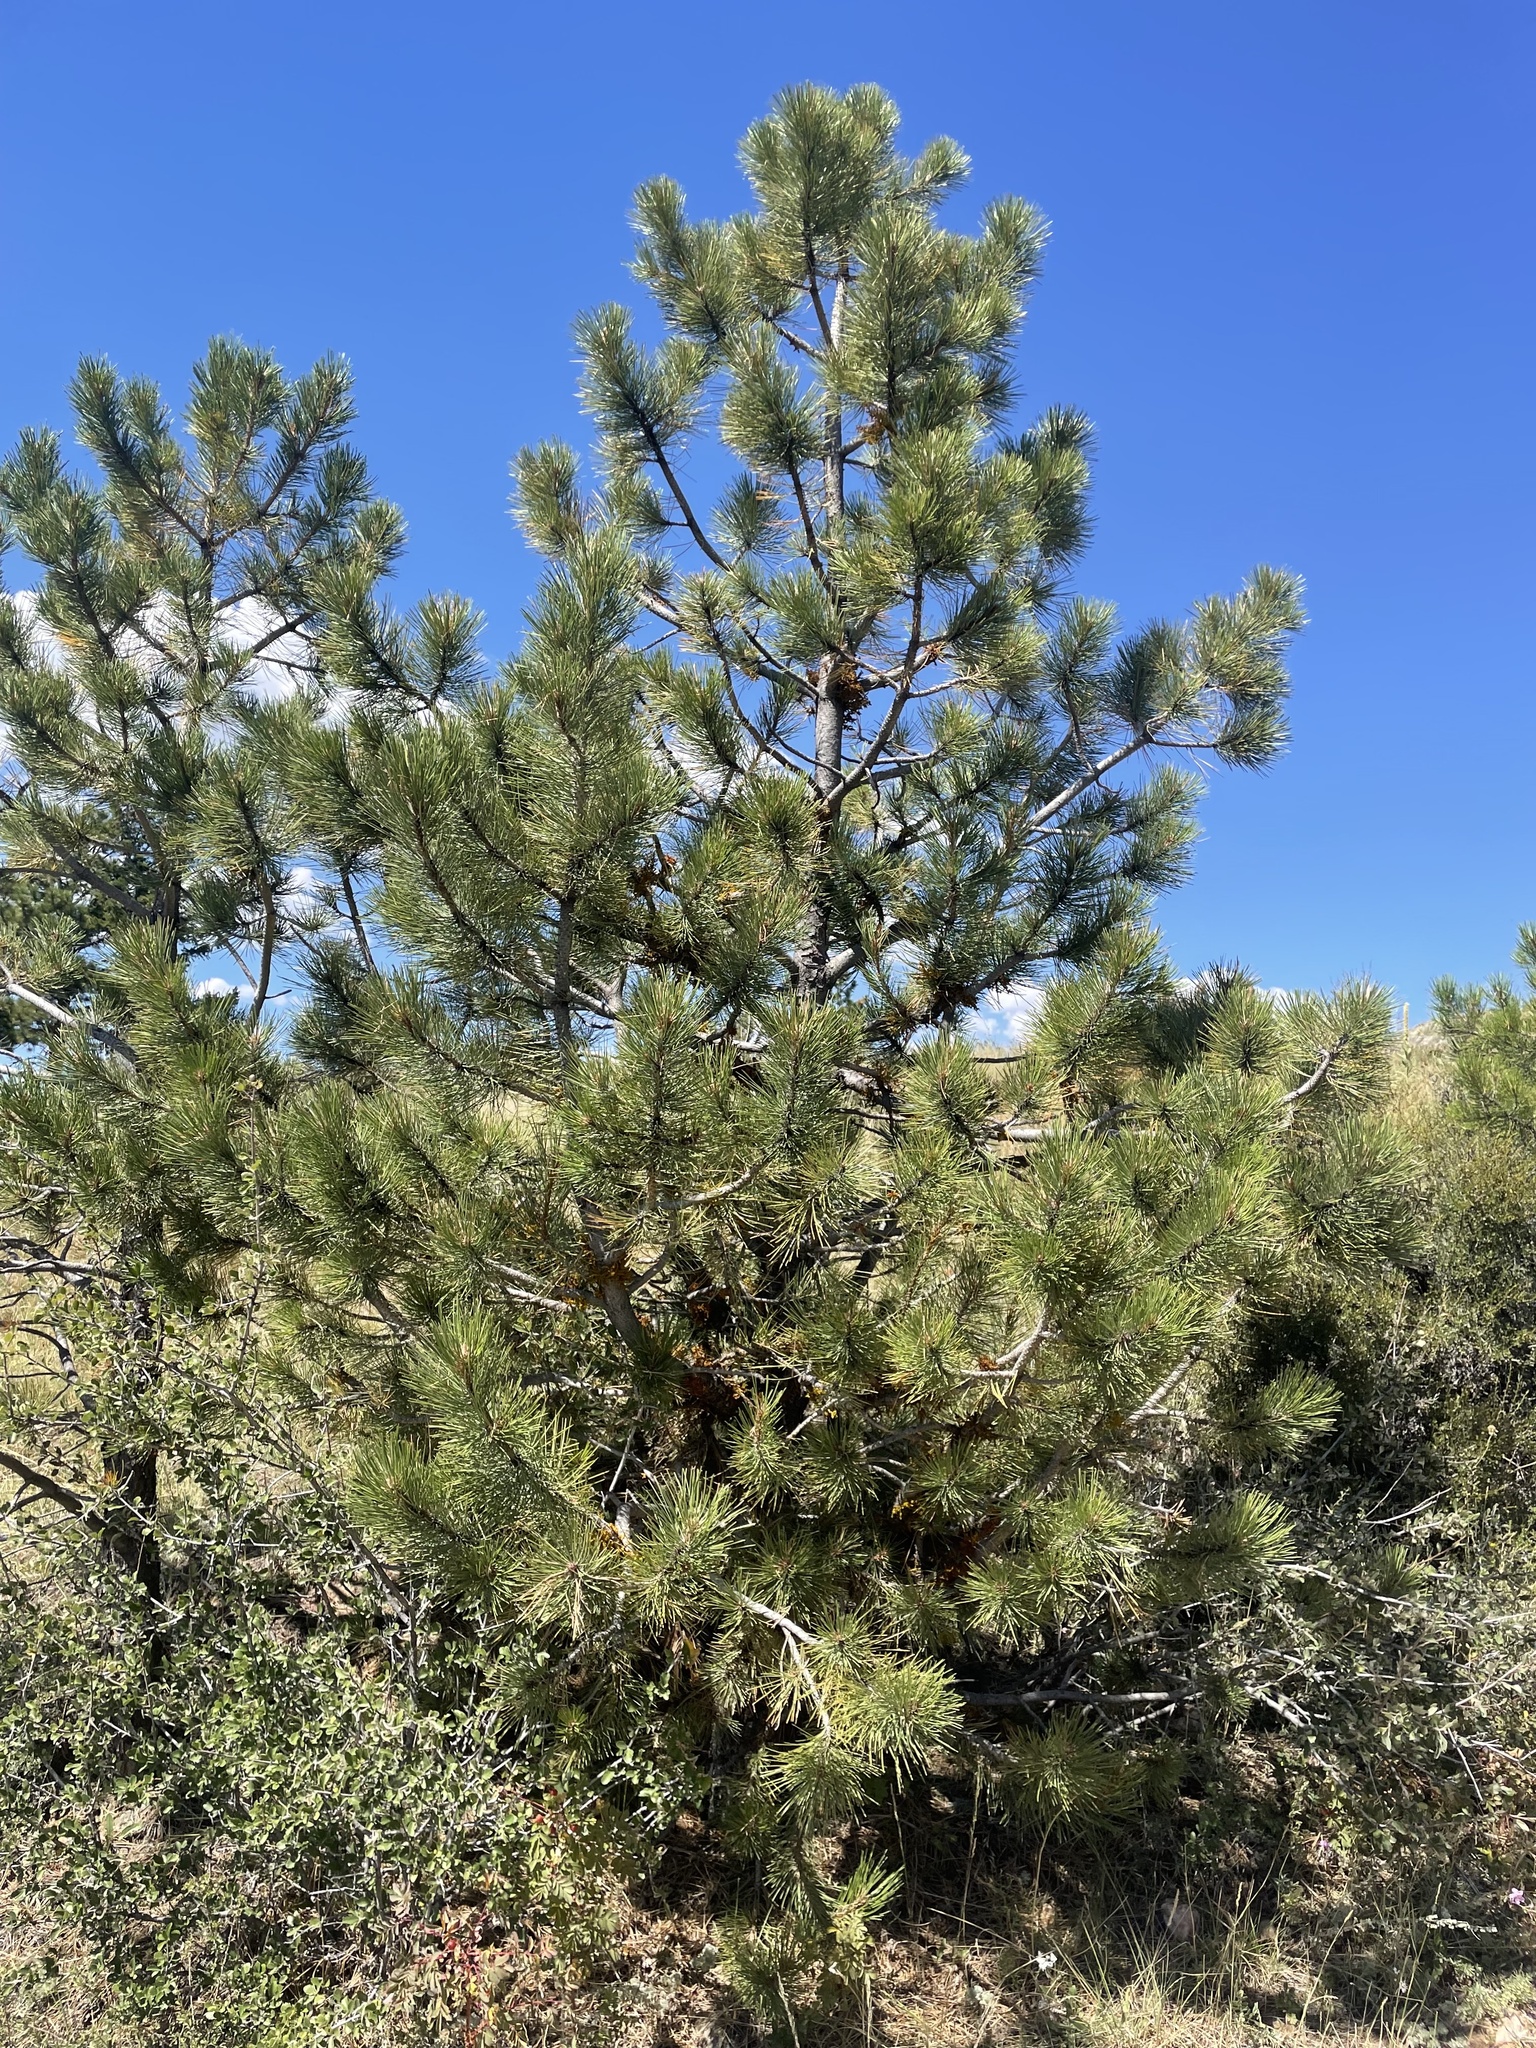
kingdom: Plantae
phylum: Tracheophyta
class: Pinopsida
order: Pinales
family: Pinaceae
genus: Pinus
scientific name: Pinus ponderosa
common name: Western yellow-pine
